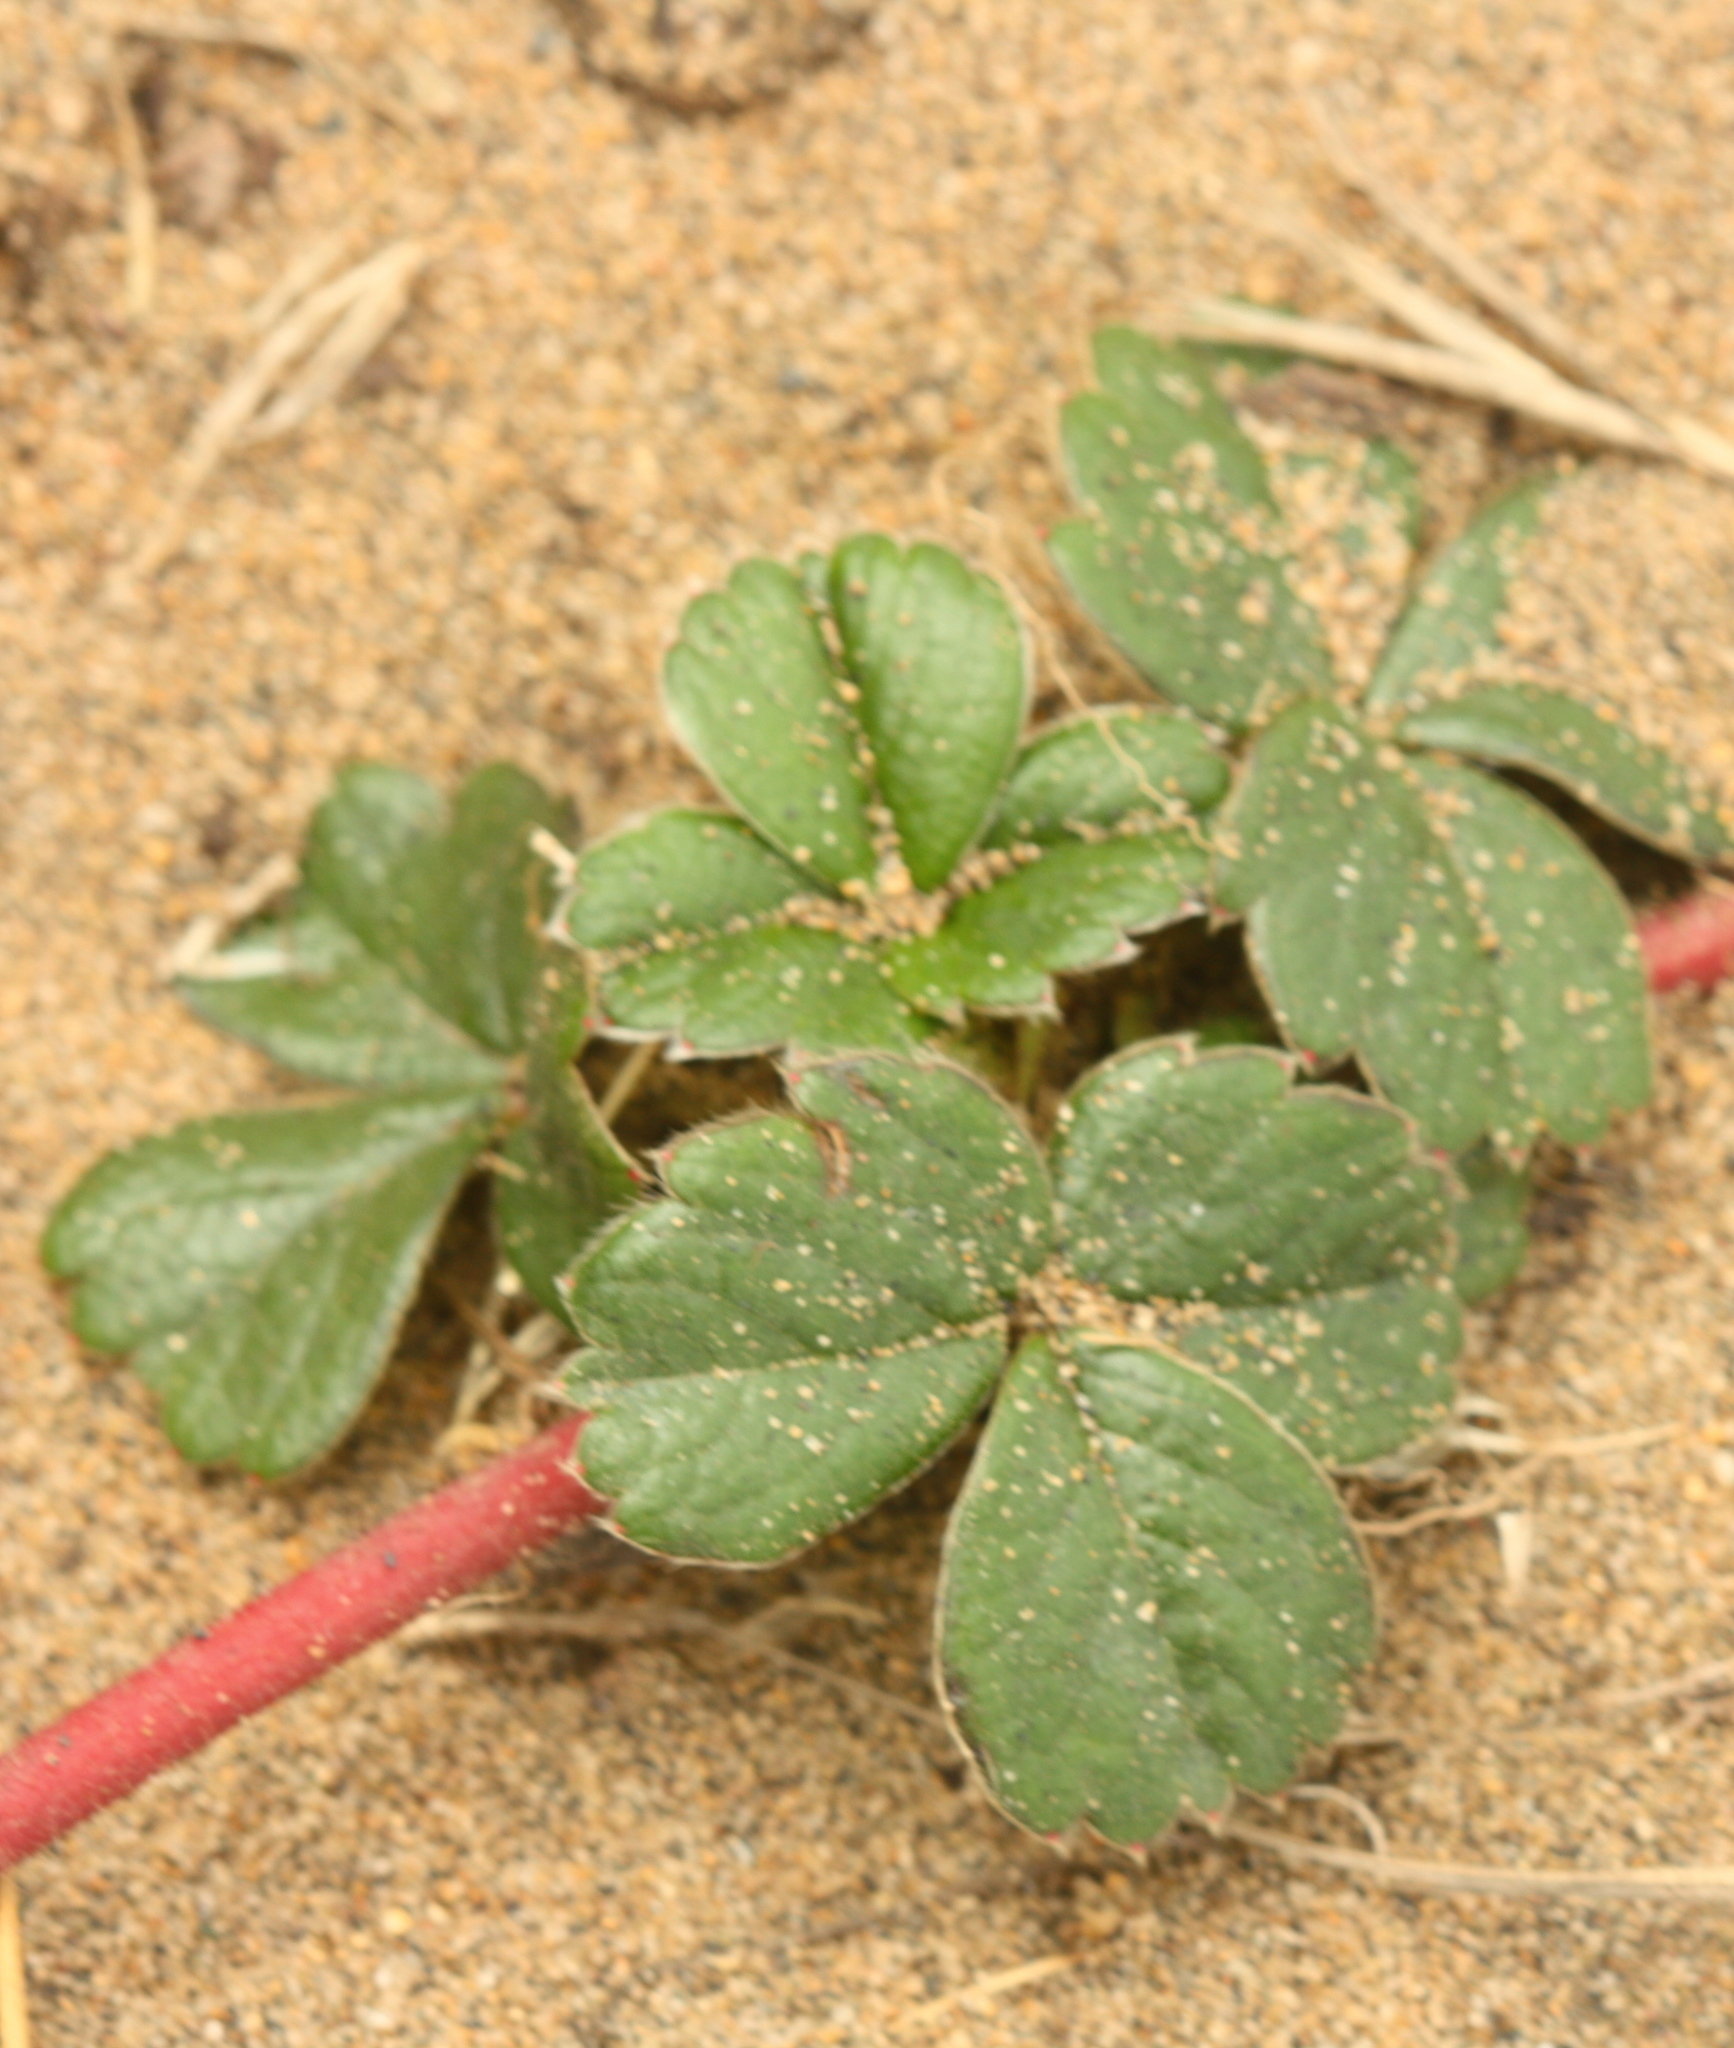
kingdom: Plantae
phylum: Tracheophyta
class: Magnoliopsida
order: Rosales
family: Rosaceae
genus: Fragaria
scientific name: Fragaria chiloensis
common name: Beach strawberry
